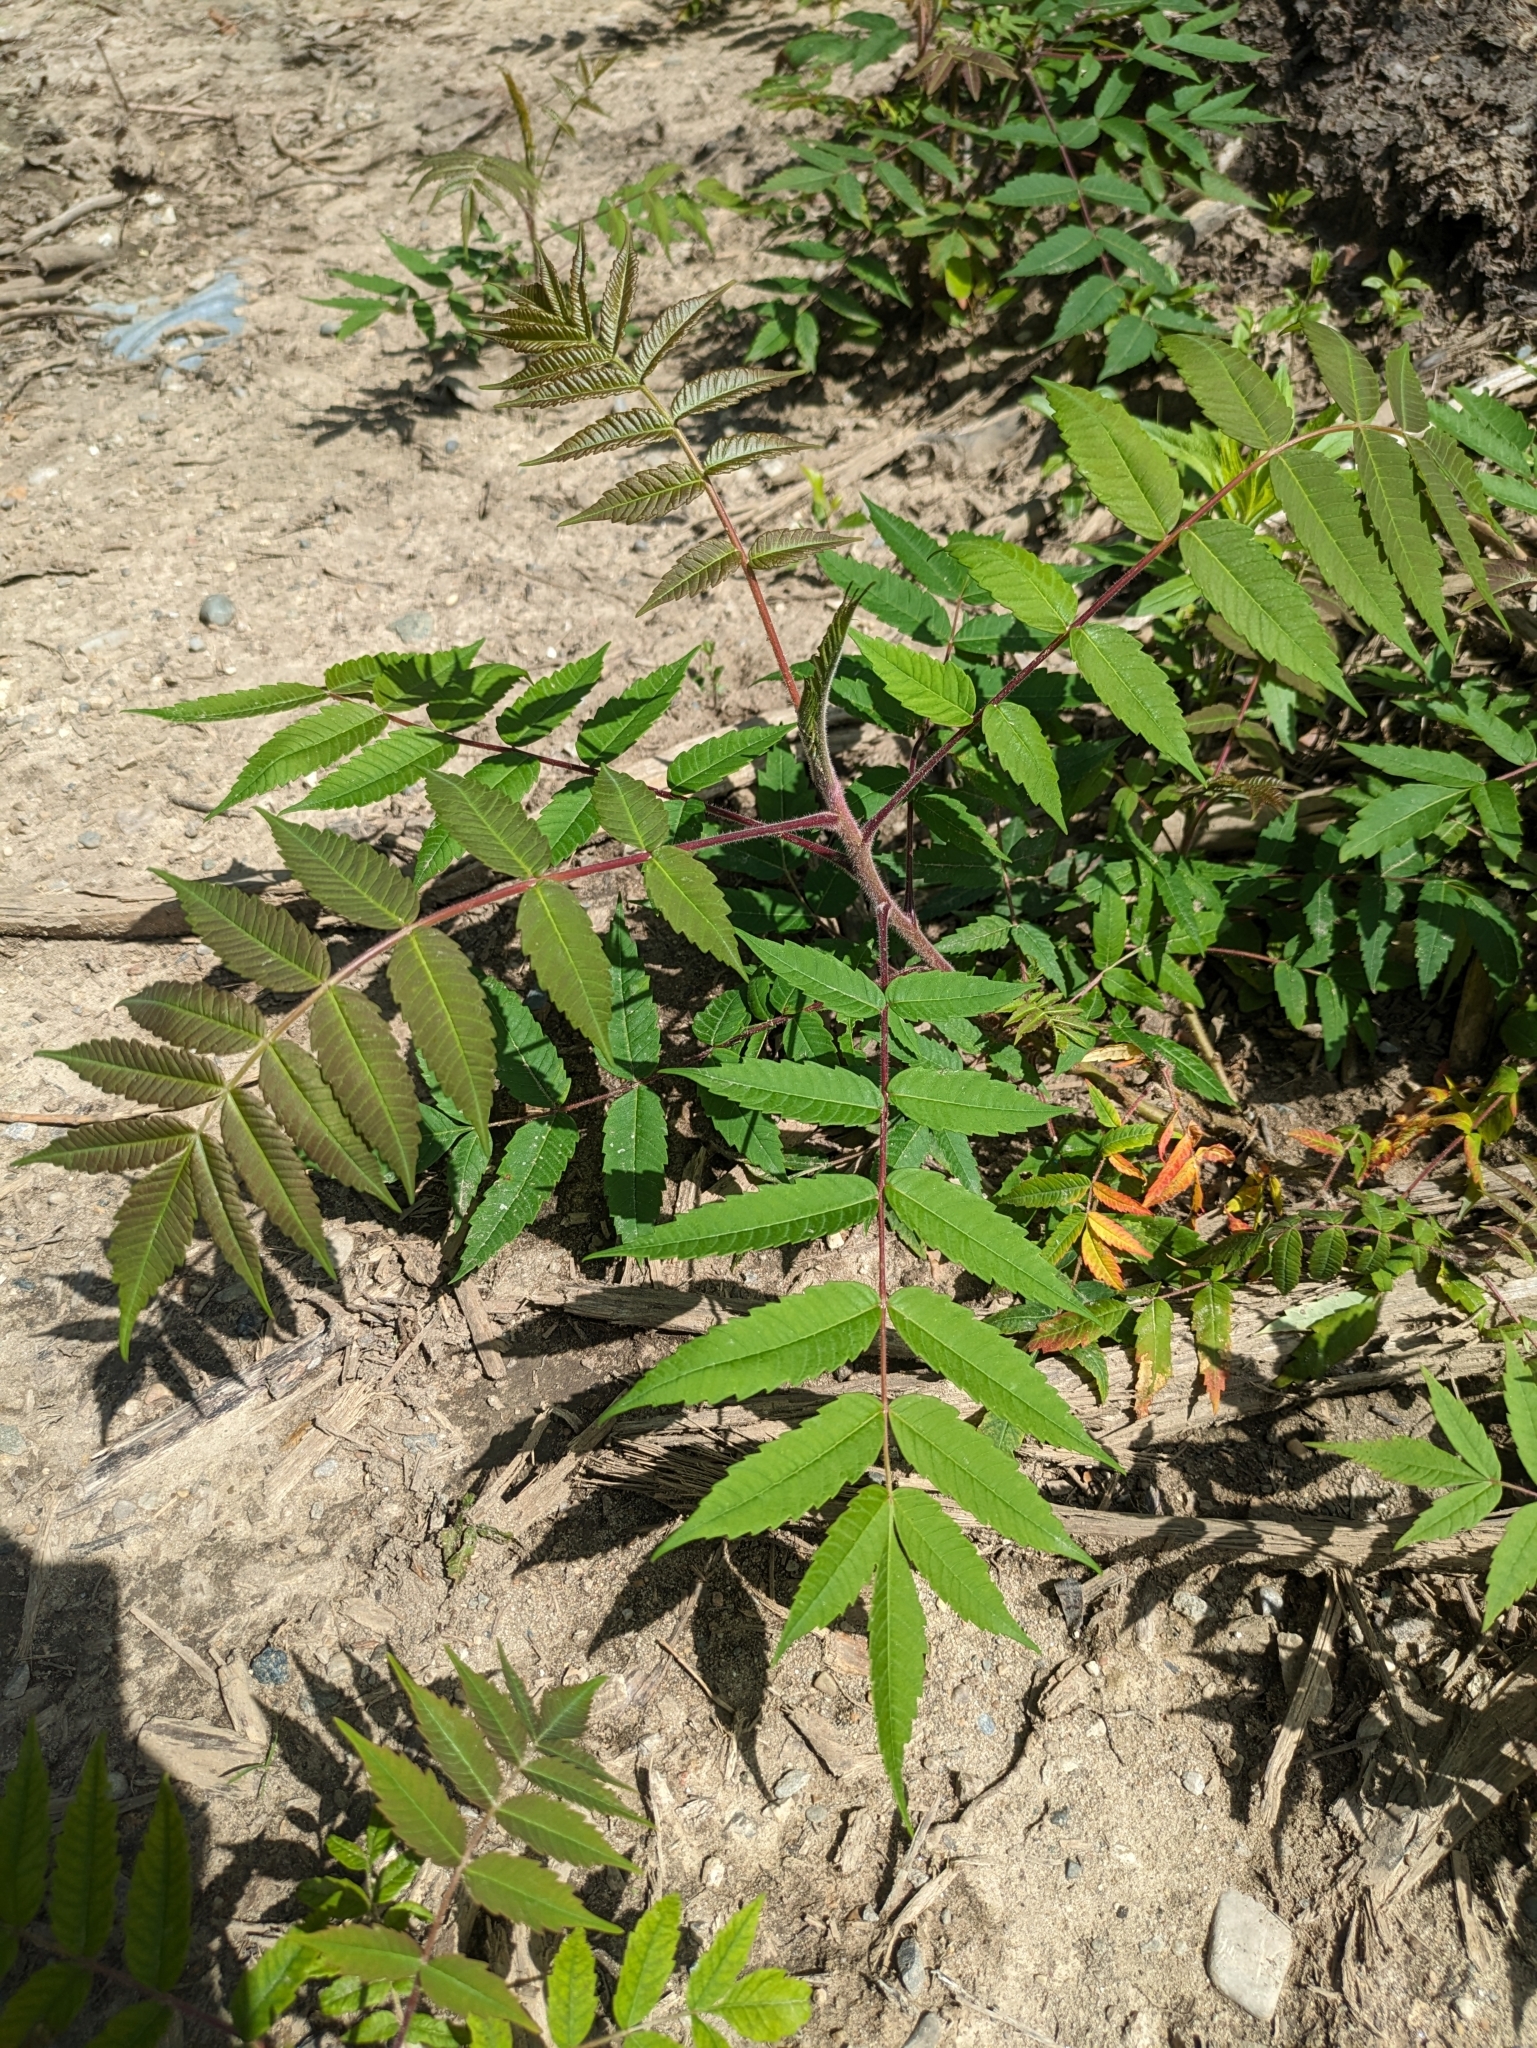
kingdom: Plantae
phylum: Tracheophyta
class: Magnoliopsida
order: Sapindales
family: Anacardiaceae
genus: Rhus
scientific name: Rhus typhina
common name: Staghorn sumac
